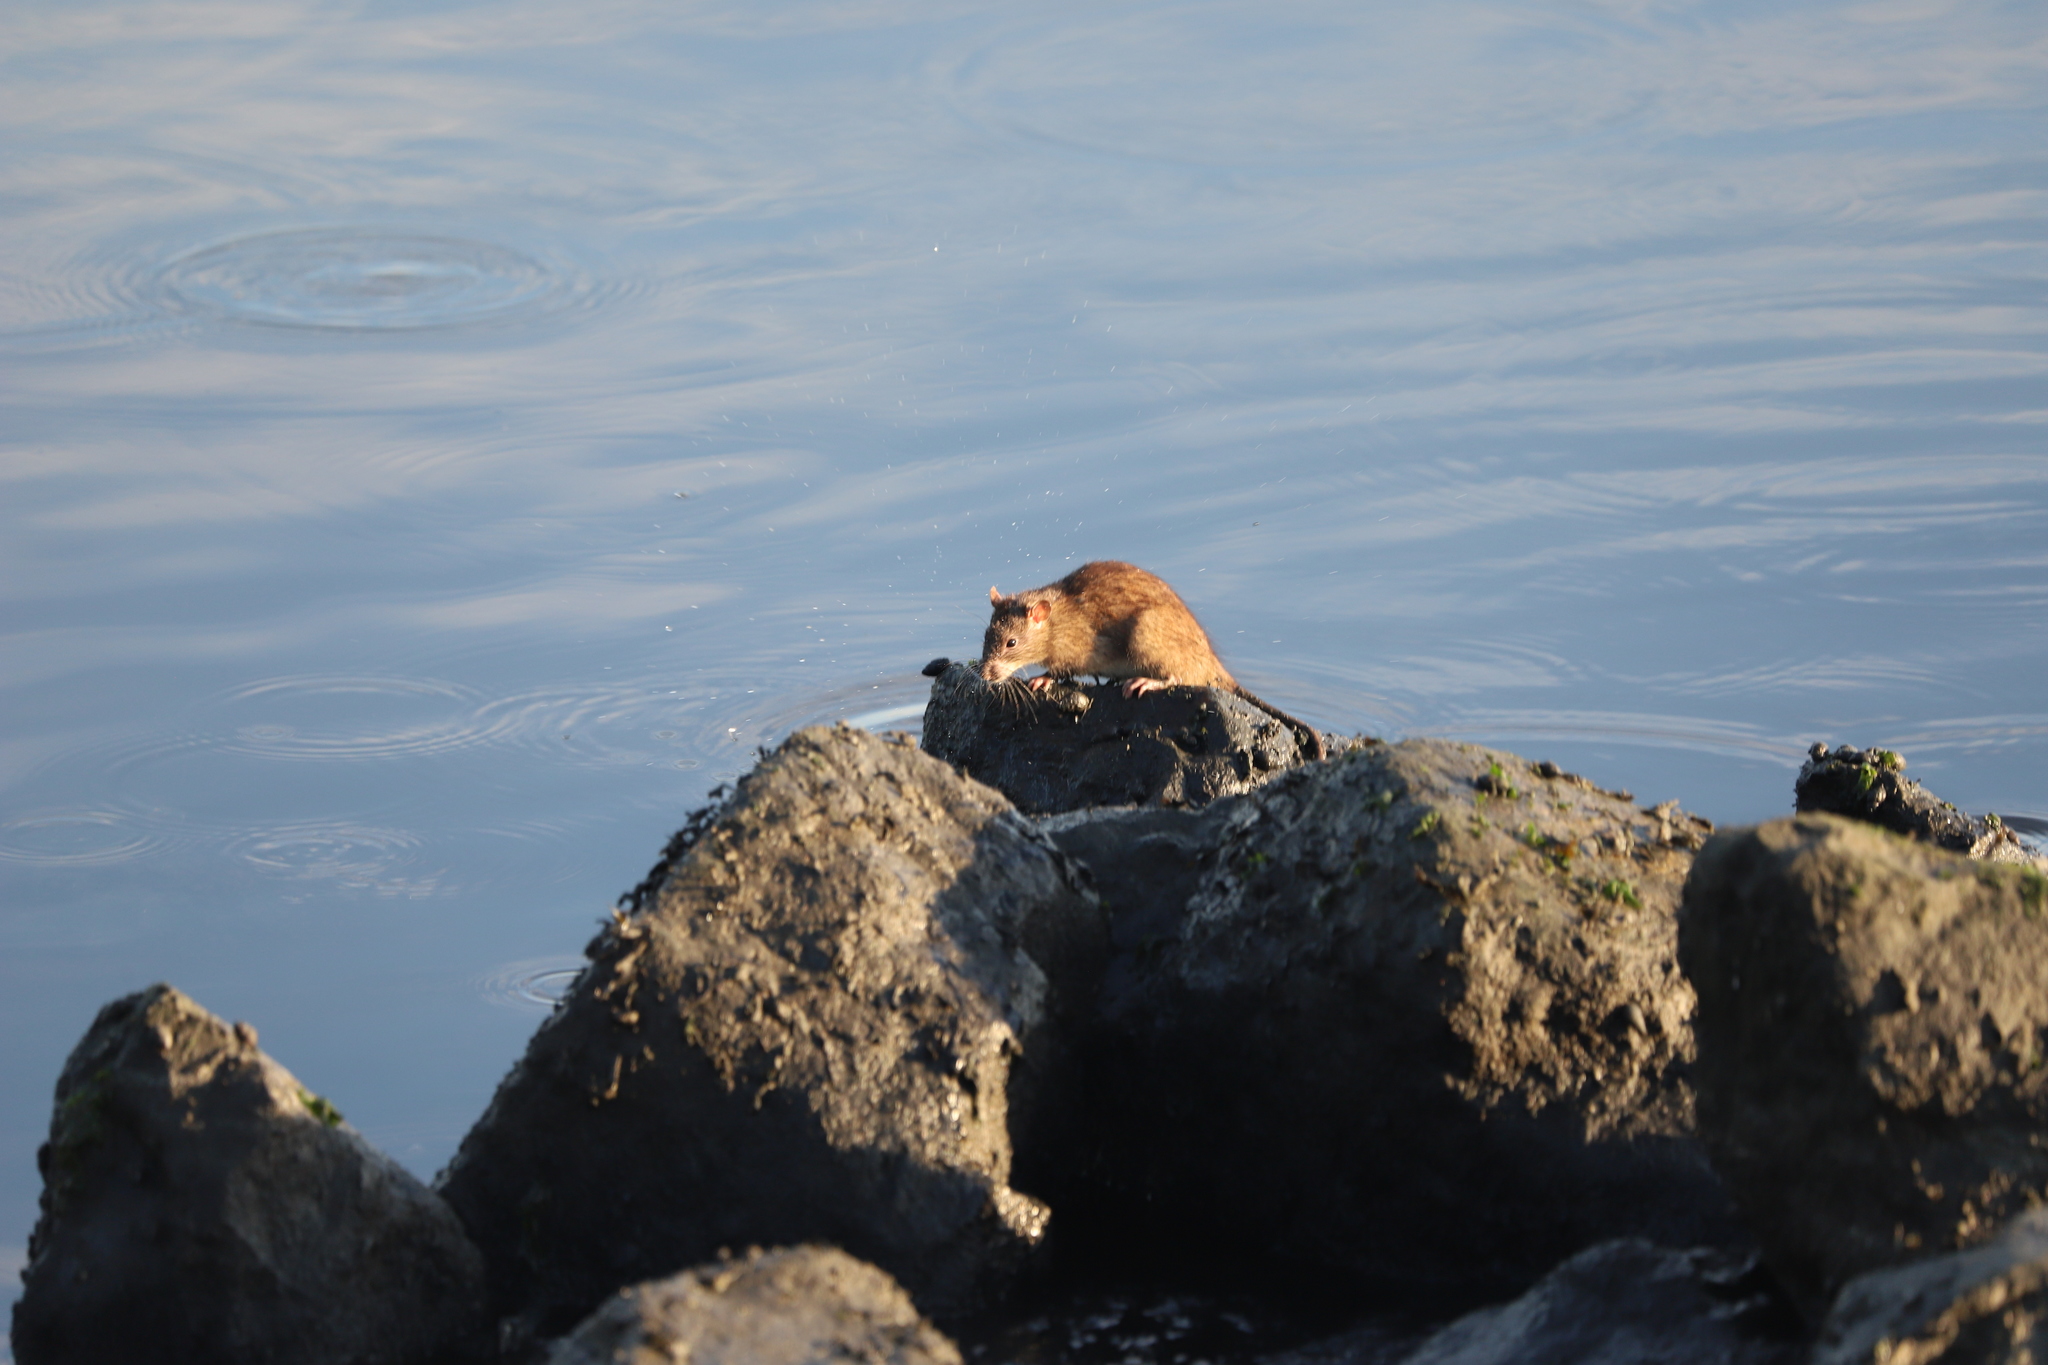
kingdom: Animalia
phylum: Chordata
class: Mammalia
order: Rodentia
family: Muridae
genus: Rattus
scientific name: Rattus norvegicus
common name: Brown rat
